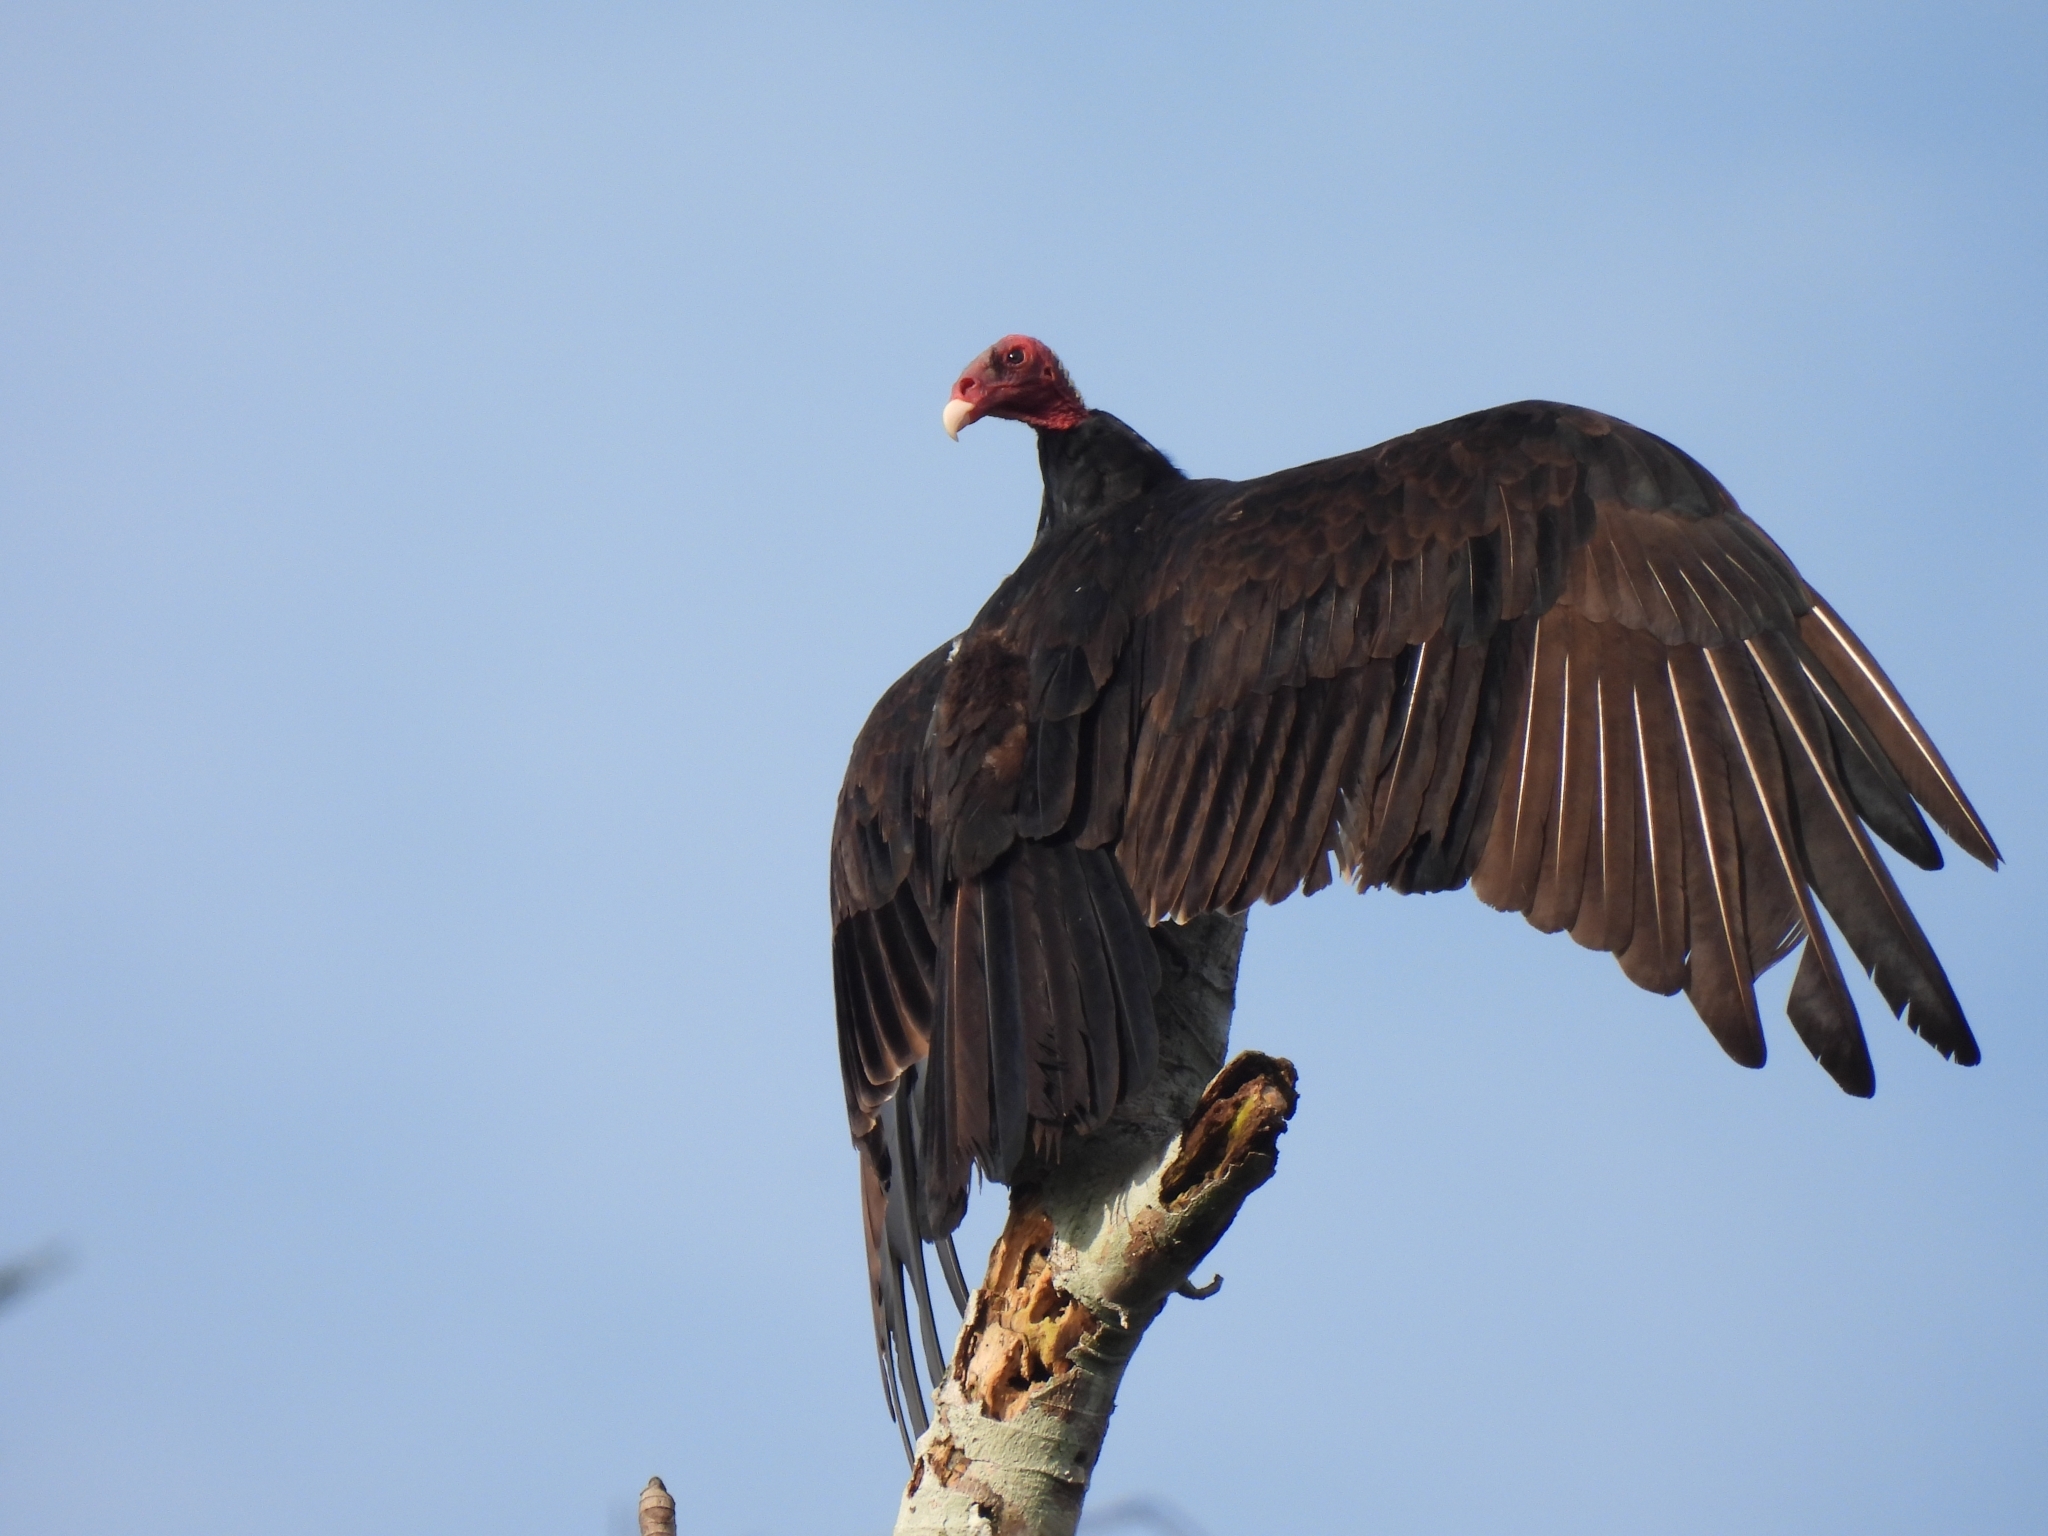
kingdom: Animalia
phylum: Chordata
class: Aves
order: Accipitriformes
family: Cathartidae
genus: Cathartes
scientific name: Cathartes aura
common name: Turkey vulture
